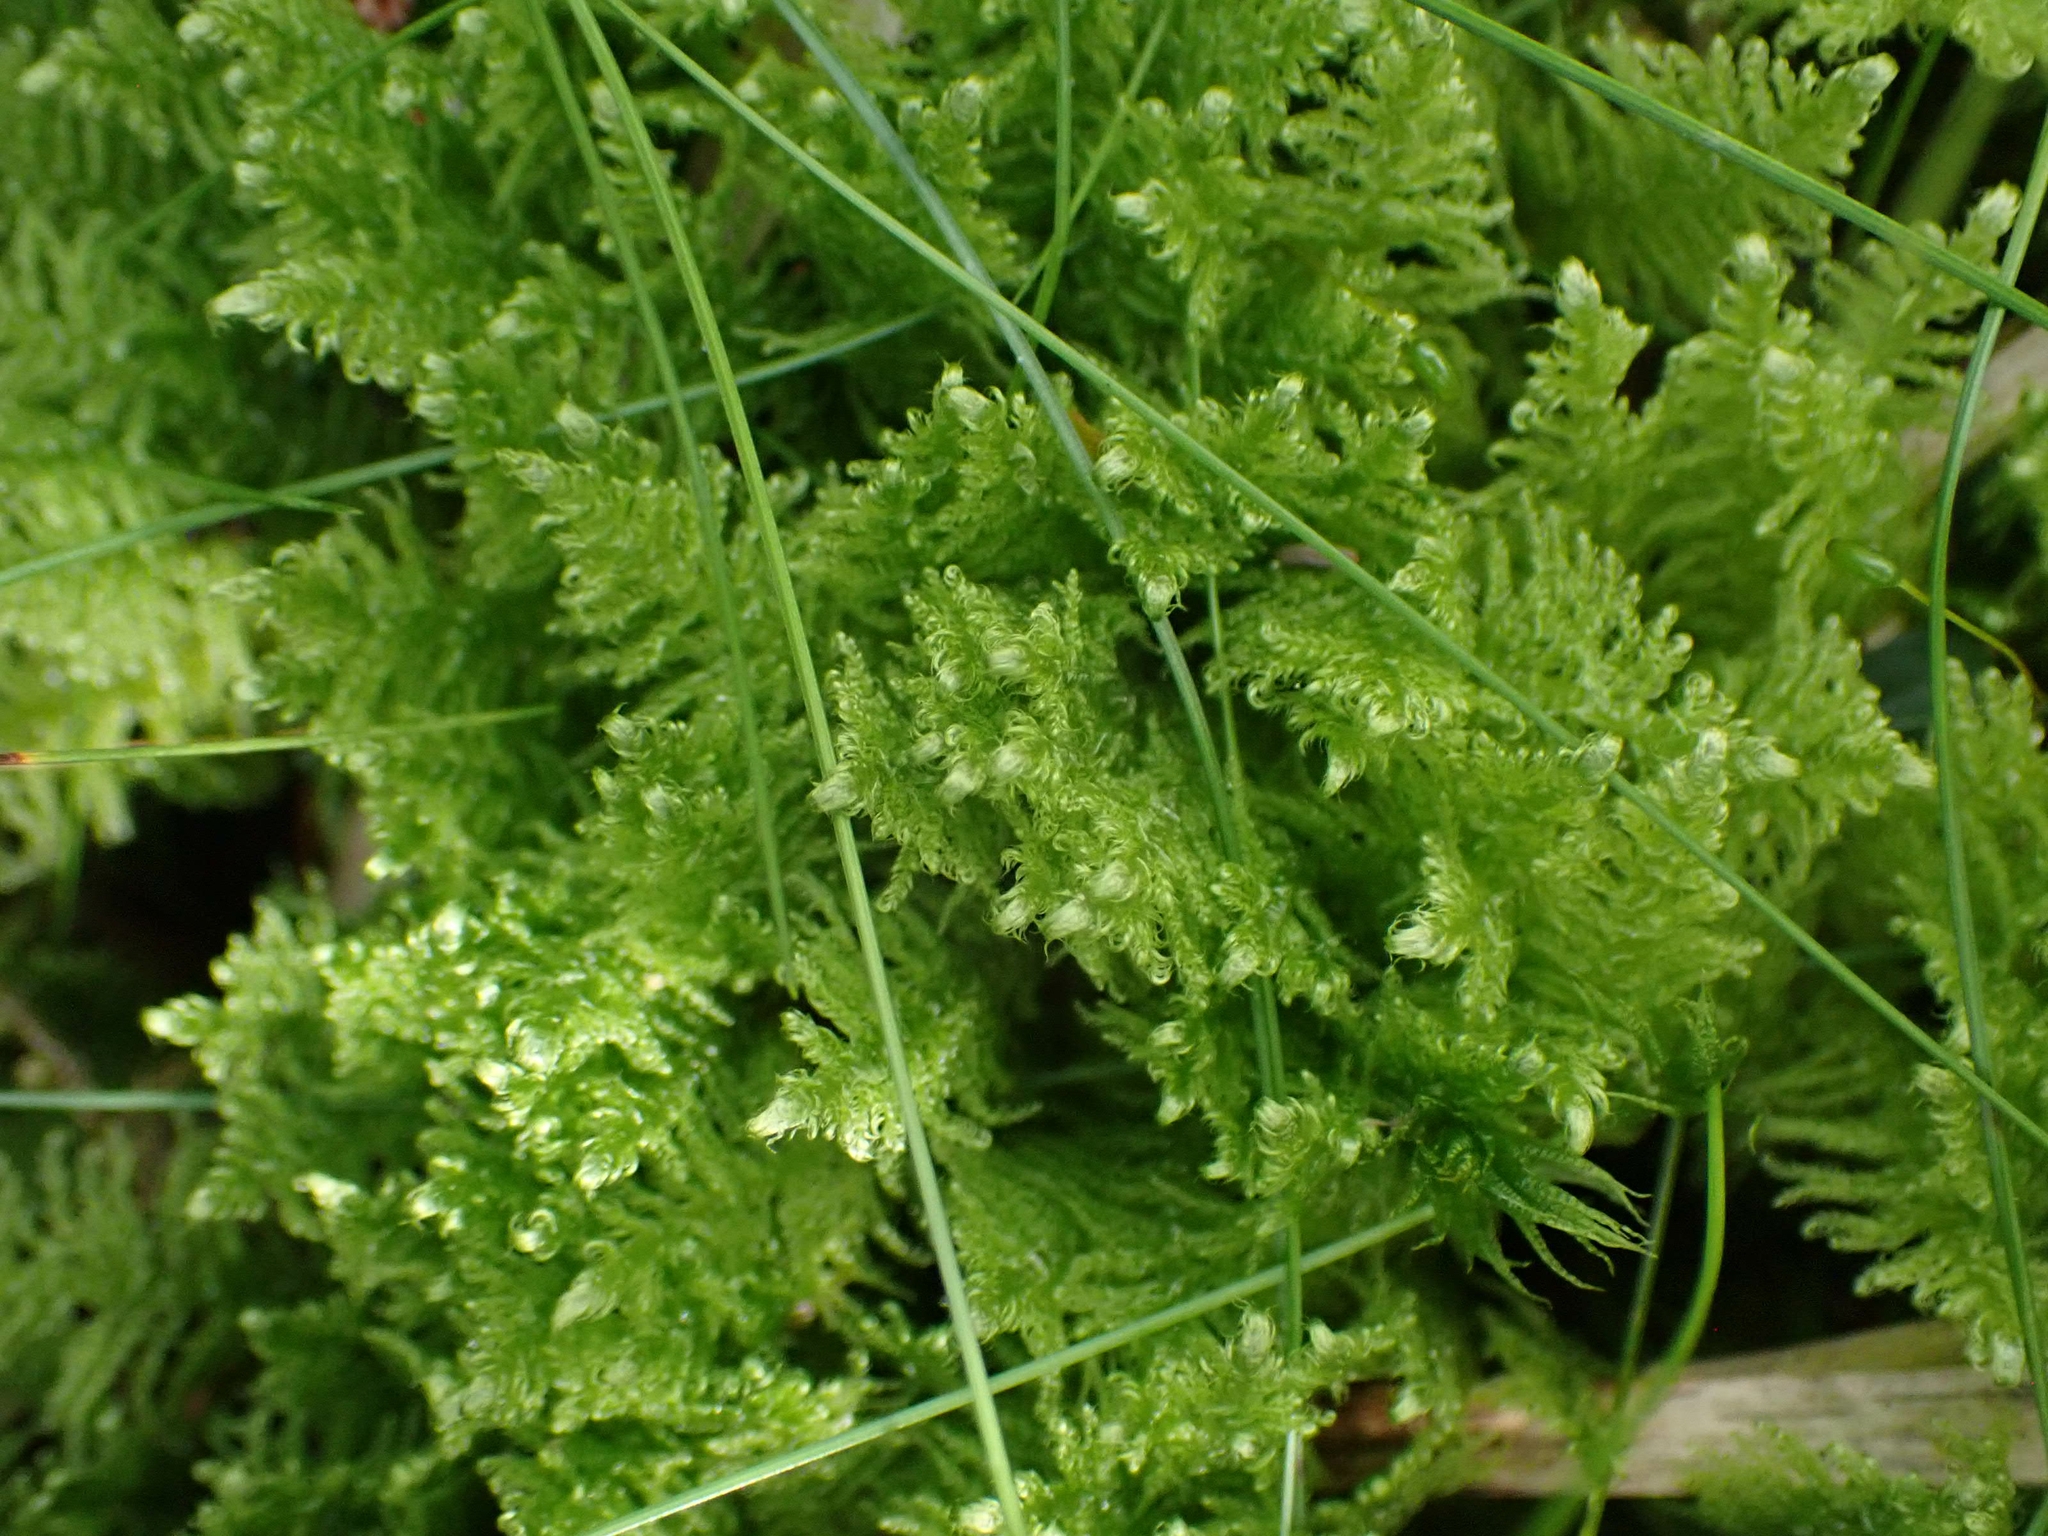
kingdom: Plantae
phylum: Bryophyta
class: Bryopsida
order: Hypnales
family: Pylaisiaceae
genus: Ptilium
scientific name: Ptilium crista-castrensis
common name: Knight's plume moss
